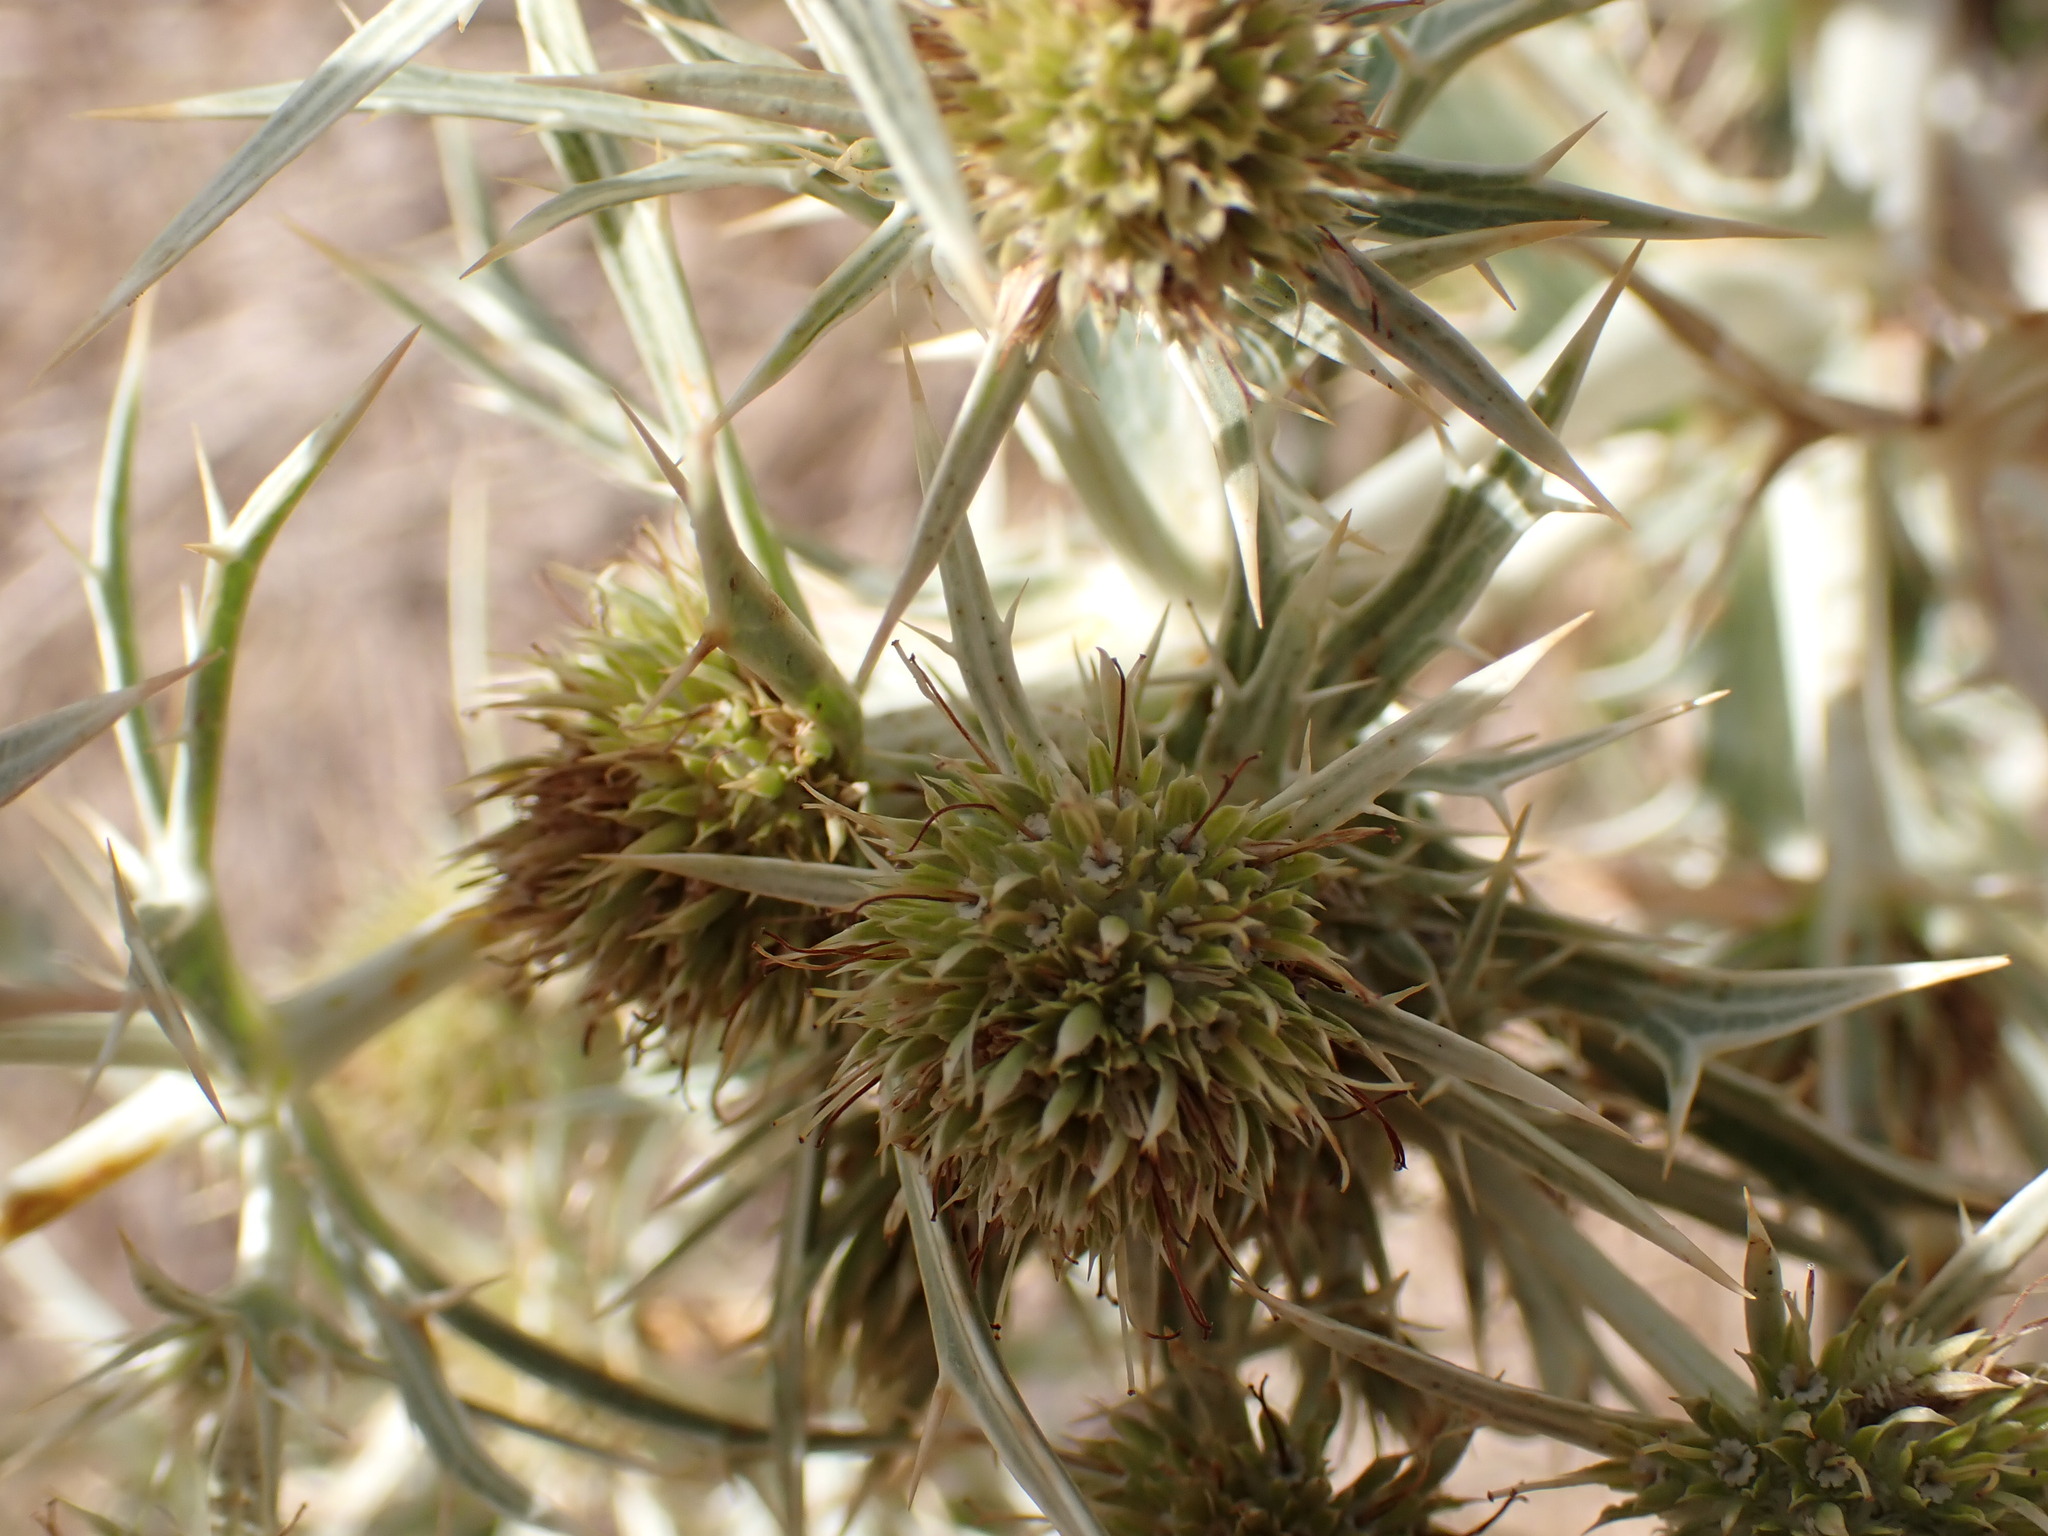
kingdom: Plantae
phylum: Tracheophyta
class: Magnoliopsida
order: Apiales
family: Apiaceae
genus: Eryngium
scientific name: Eryngium campestre
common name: Field eryngo
